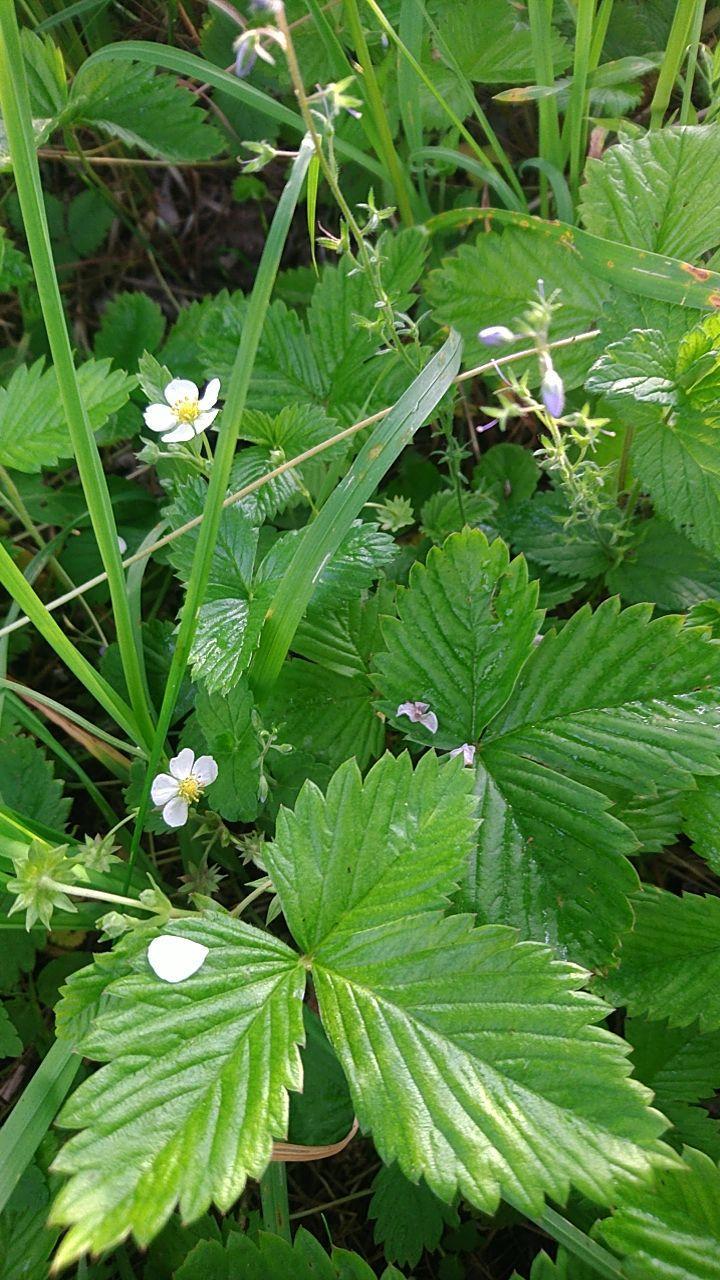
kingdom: Plantae
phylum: Tracheophyta
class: Magnoliopsida
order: Rosales
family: Rosaceae
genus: Fragaria
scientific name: Fragaria vesca
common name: Wild strawberry
